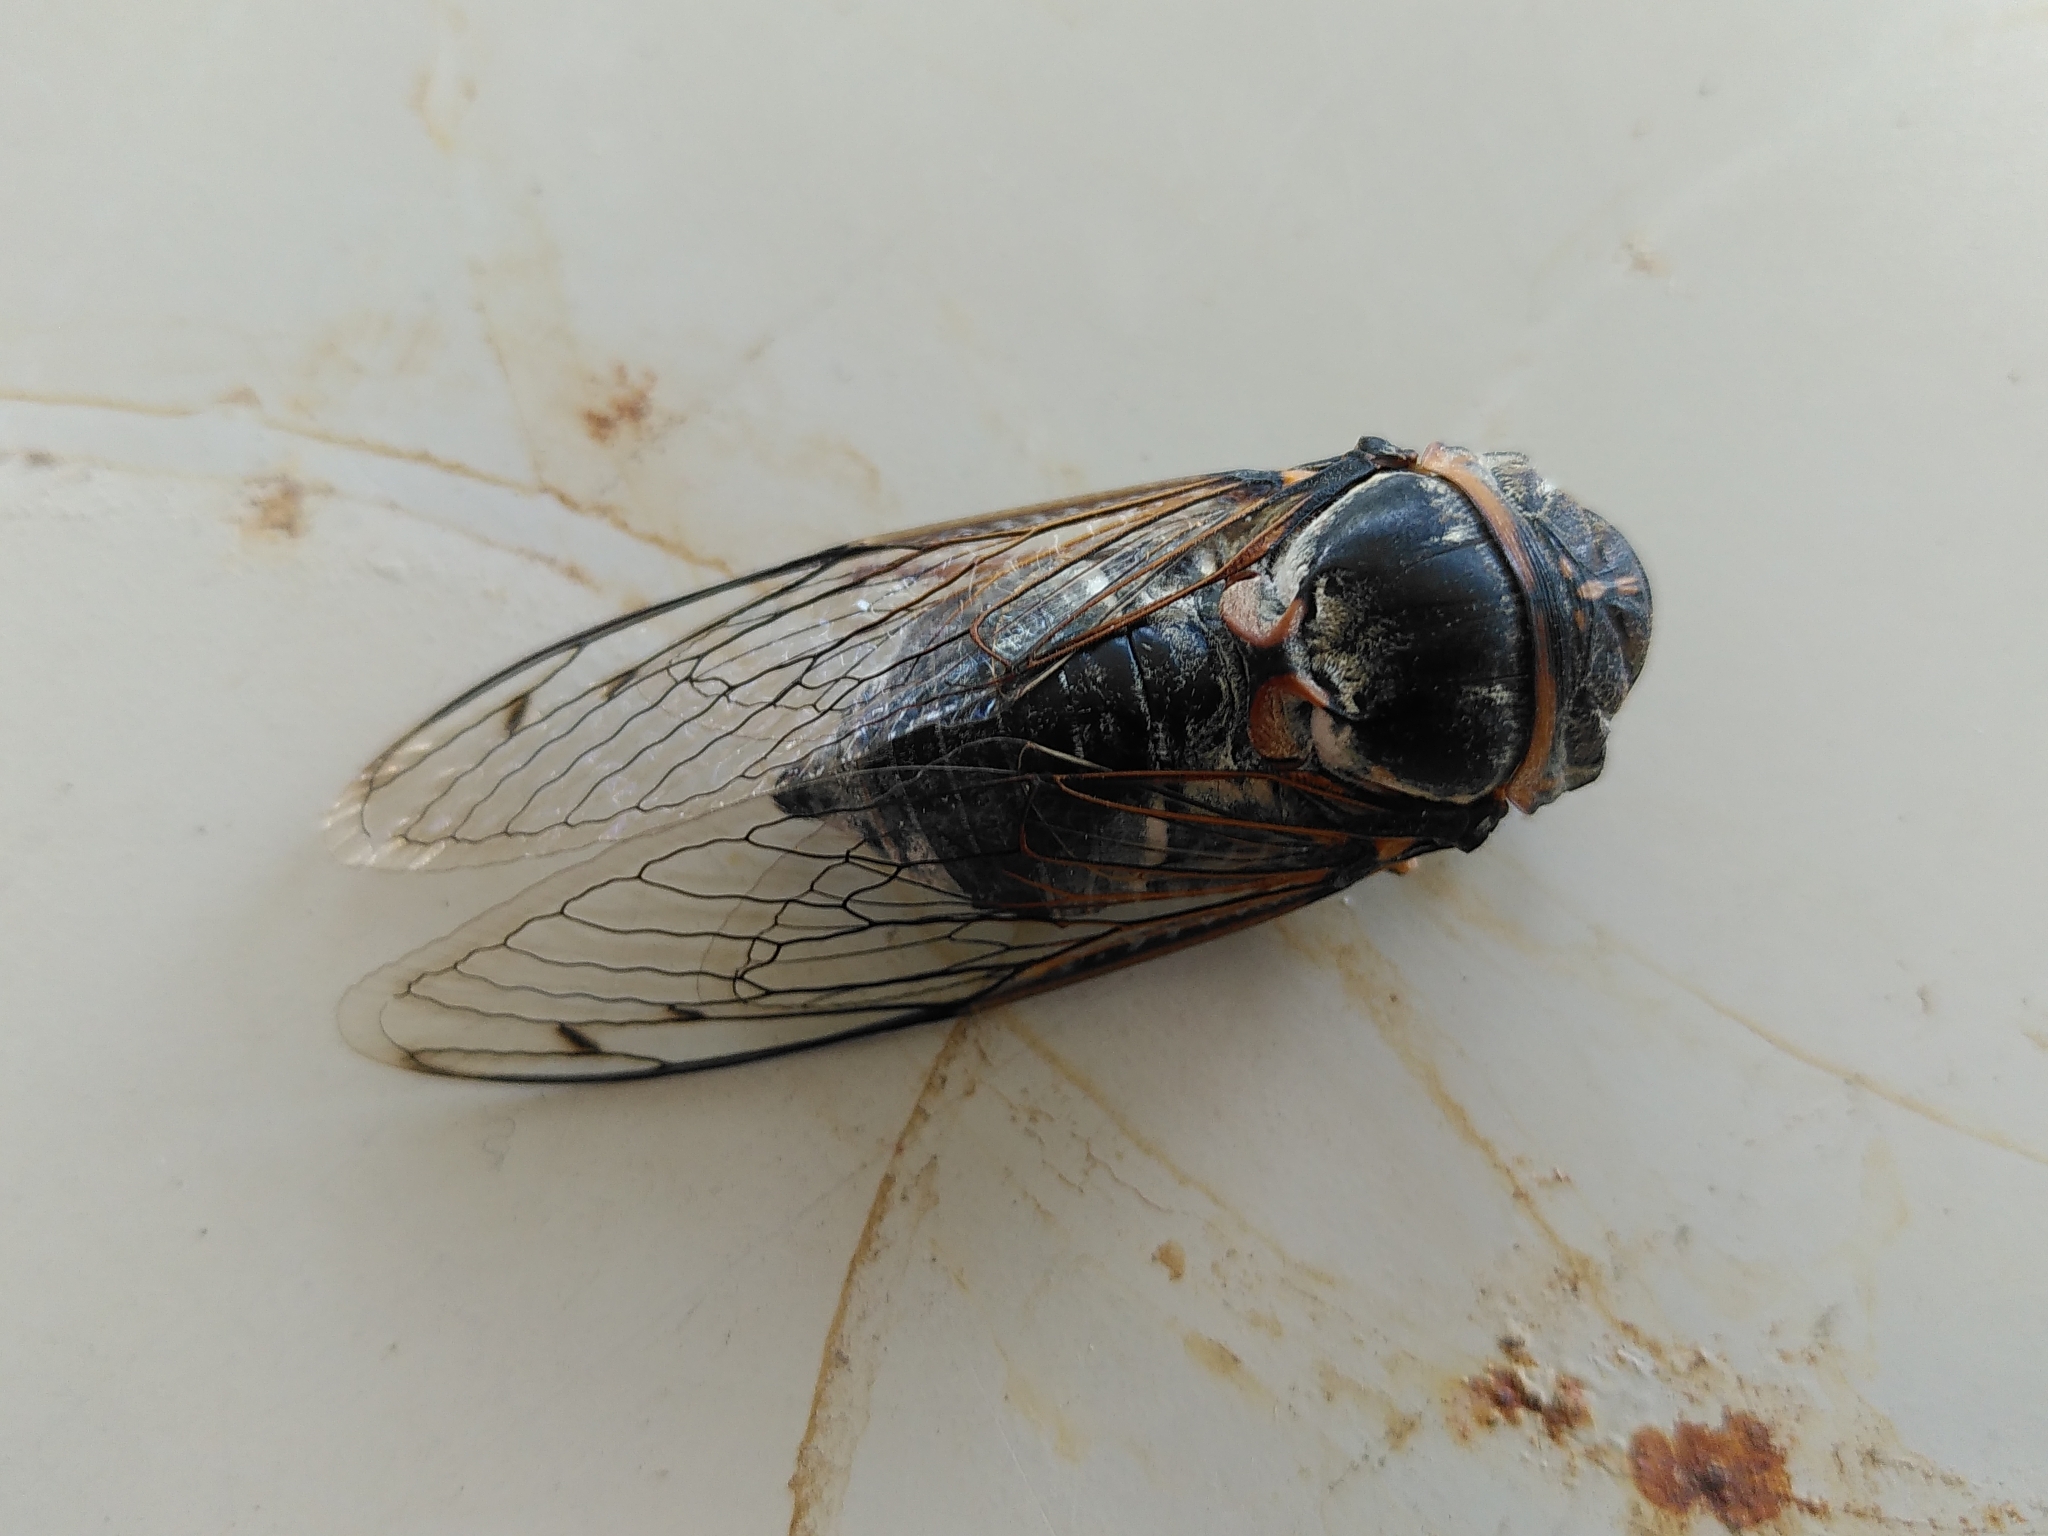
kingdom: Animalia
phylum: Arthropoda
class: Insecta
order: Hemiptera
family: Cicadidae
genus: Lyristes
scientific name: Lyristes plebejus
